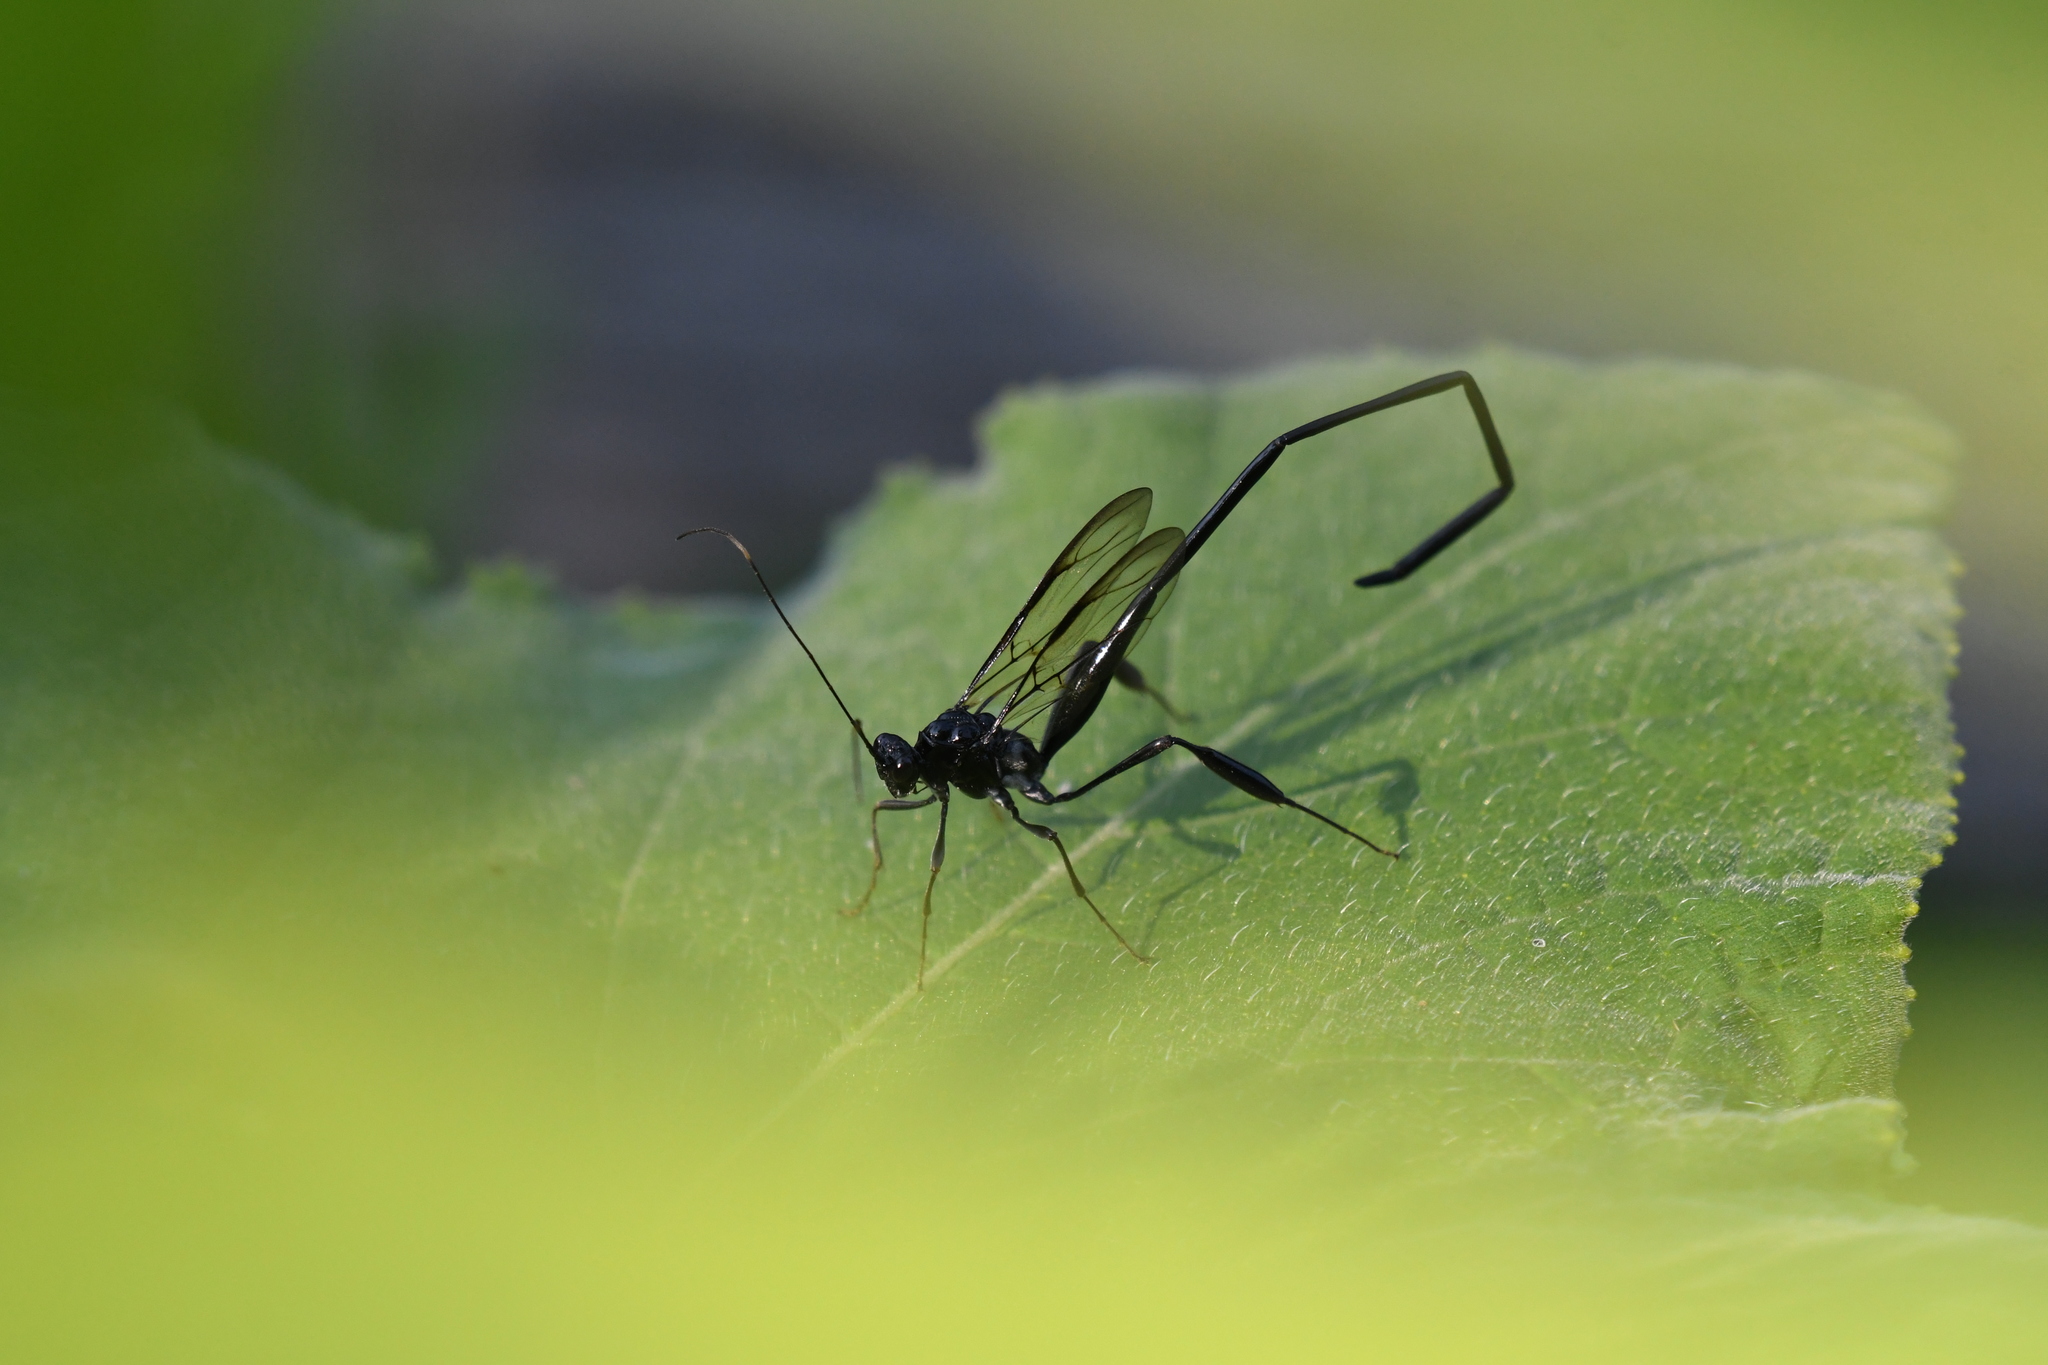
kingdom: Animalia
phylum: Arthropoda
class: Insecta
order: Hymenoptera
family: Pelecinidae
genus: Pelecinus
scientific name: Pelecinus polyturator
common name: American pelecinid wasp
